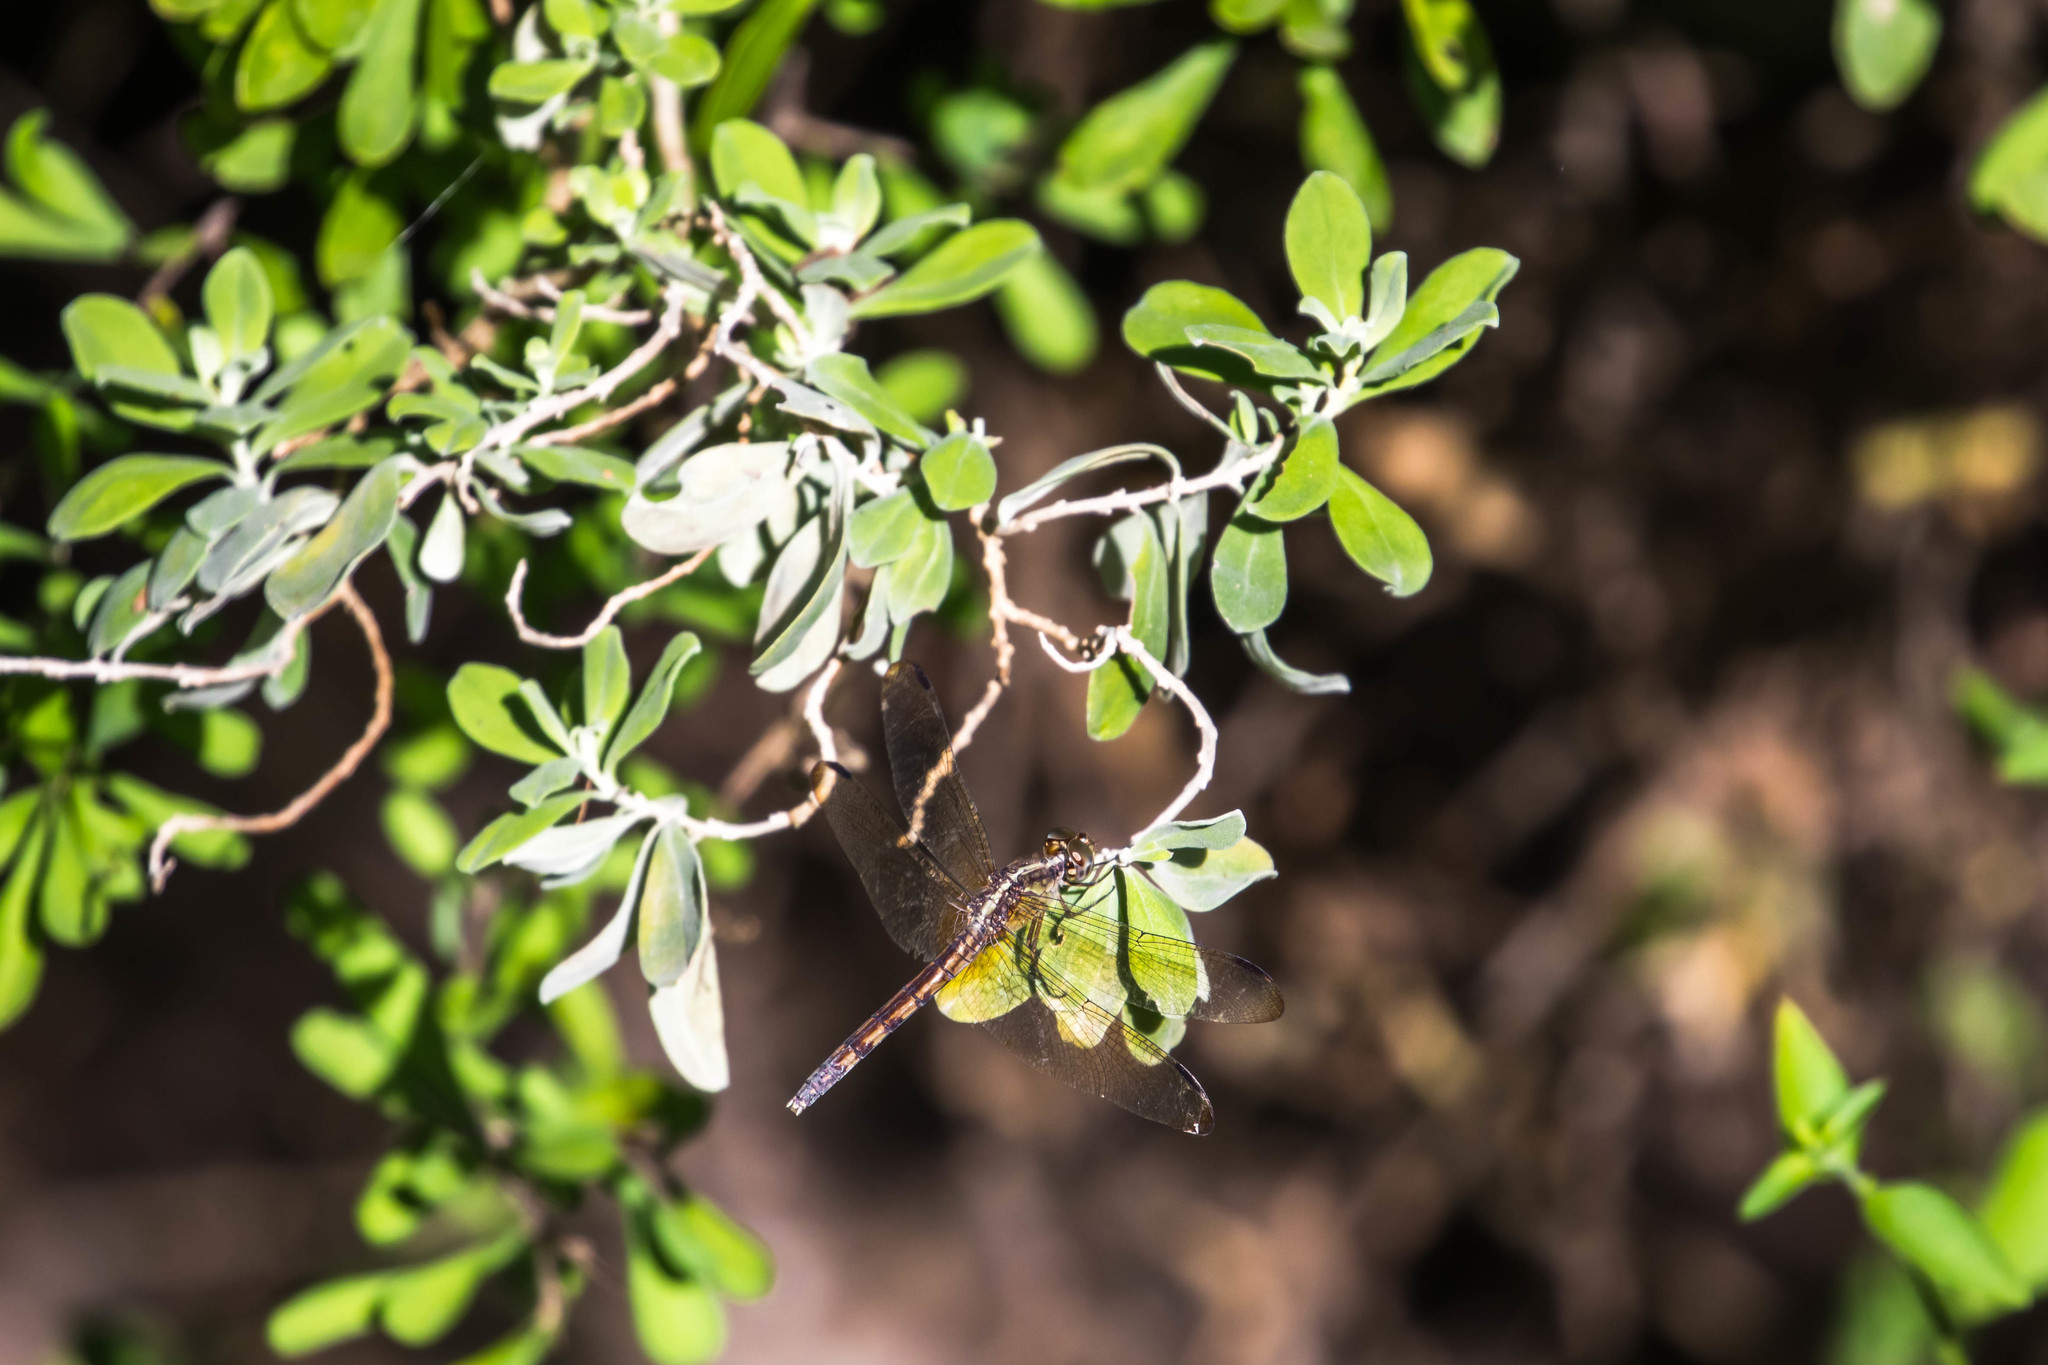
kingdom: Animalia
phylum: Arthropoda
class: Insecta
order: Odonata
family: Libellulidae
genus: Erythrodiplax
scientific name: Erythrodiplax umbrata
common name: Band-winged dragonlet
